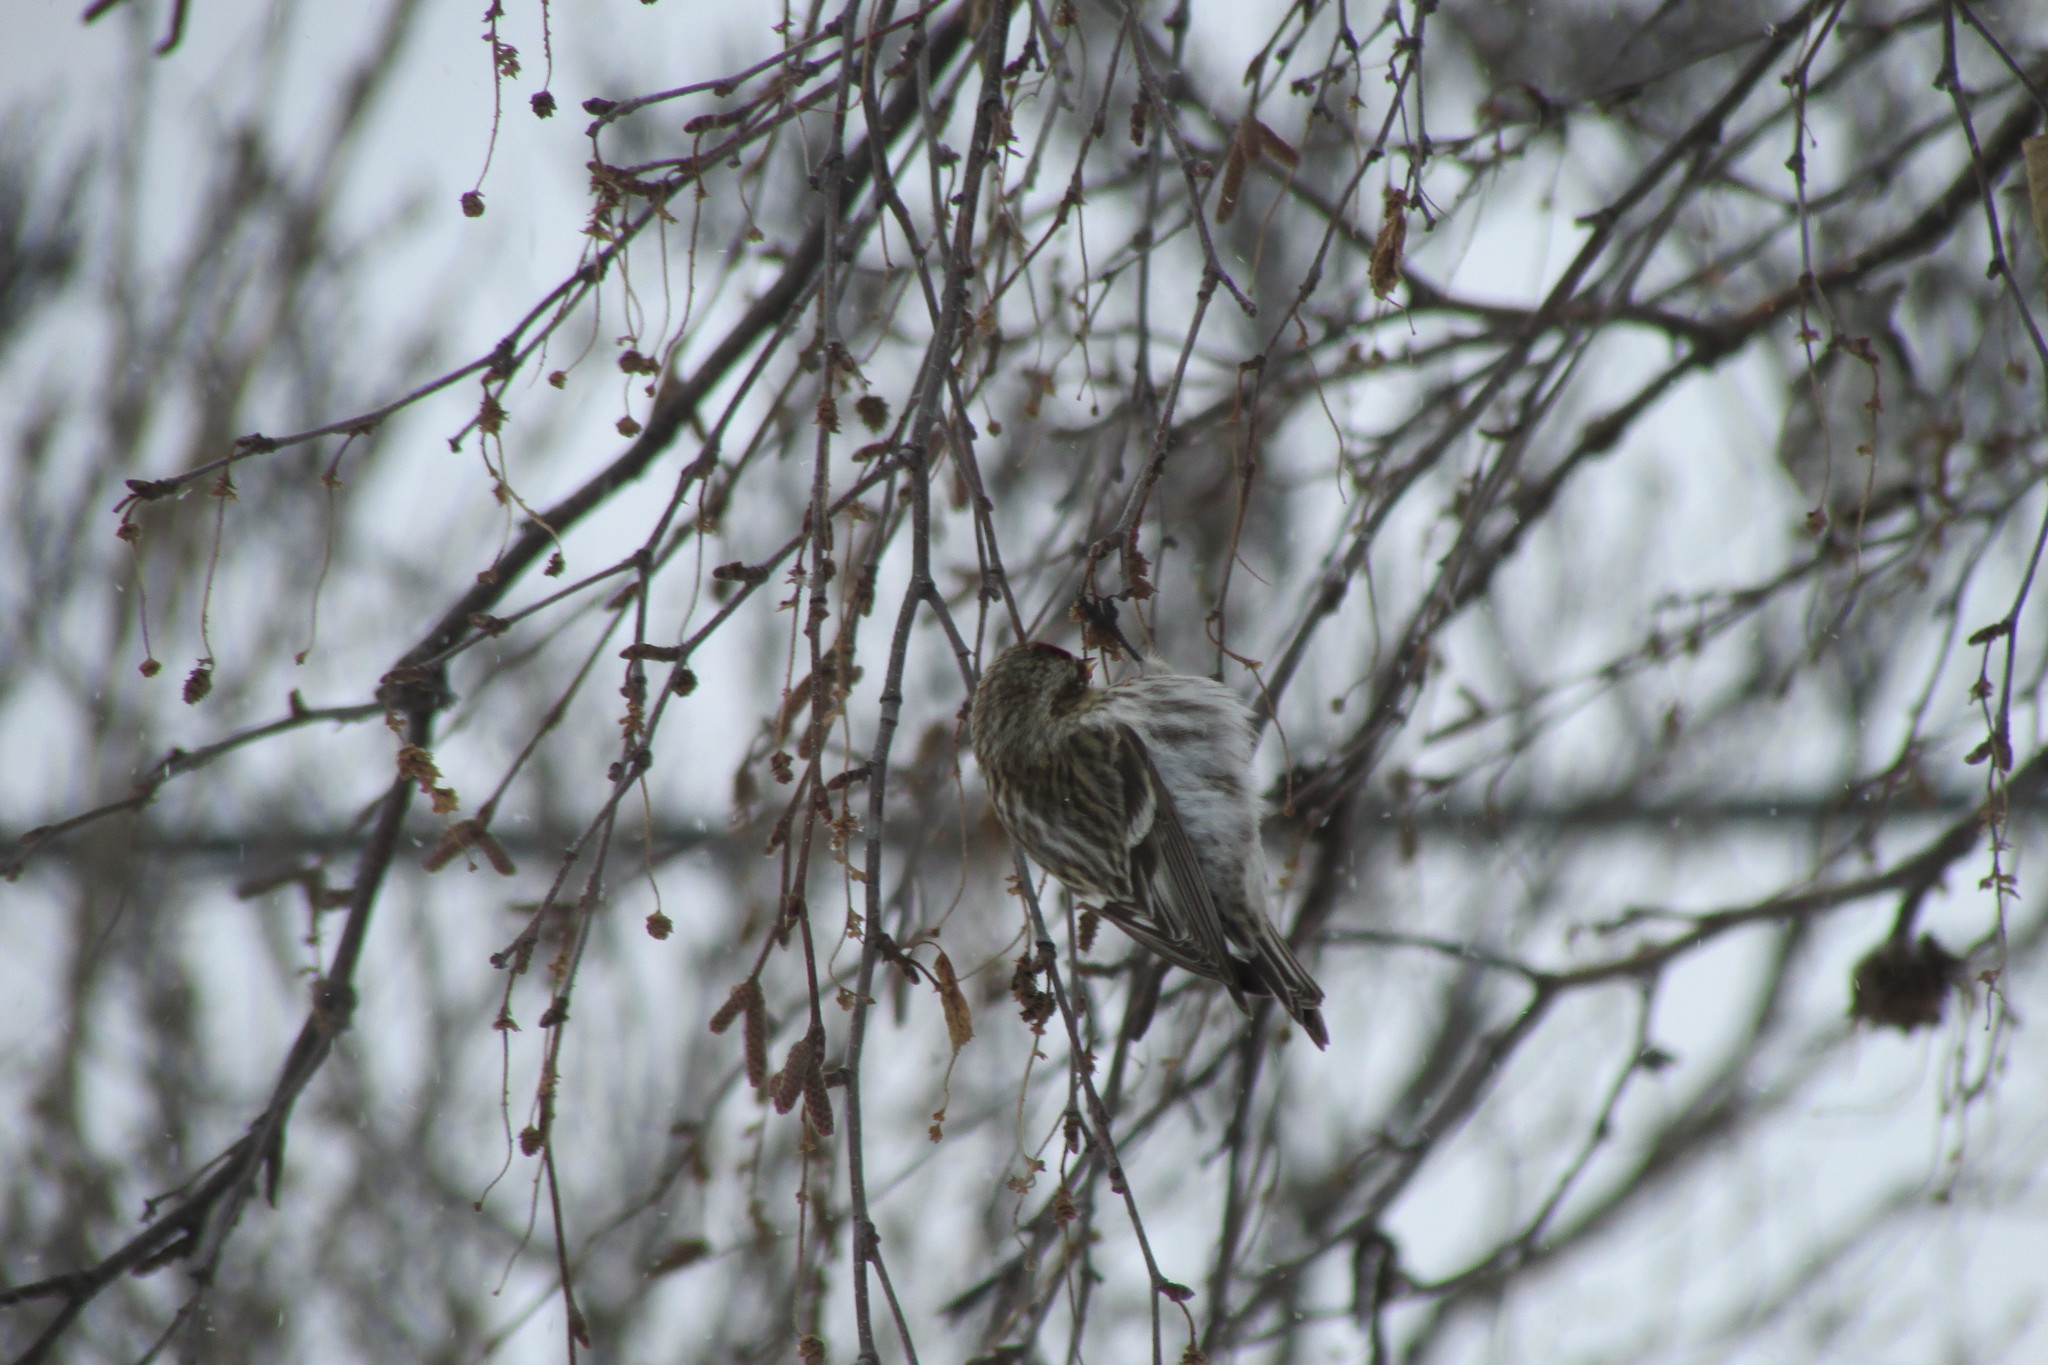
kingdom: Animalia
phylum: Chordata
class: Aves
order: Passeriformes
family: Fringillidae
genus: Acanthis
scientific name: Acanthis flammea
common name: Common redpoll
